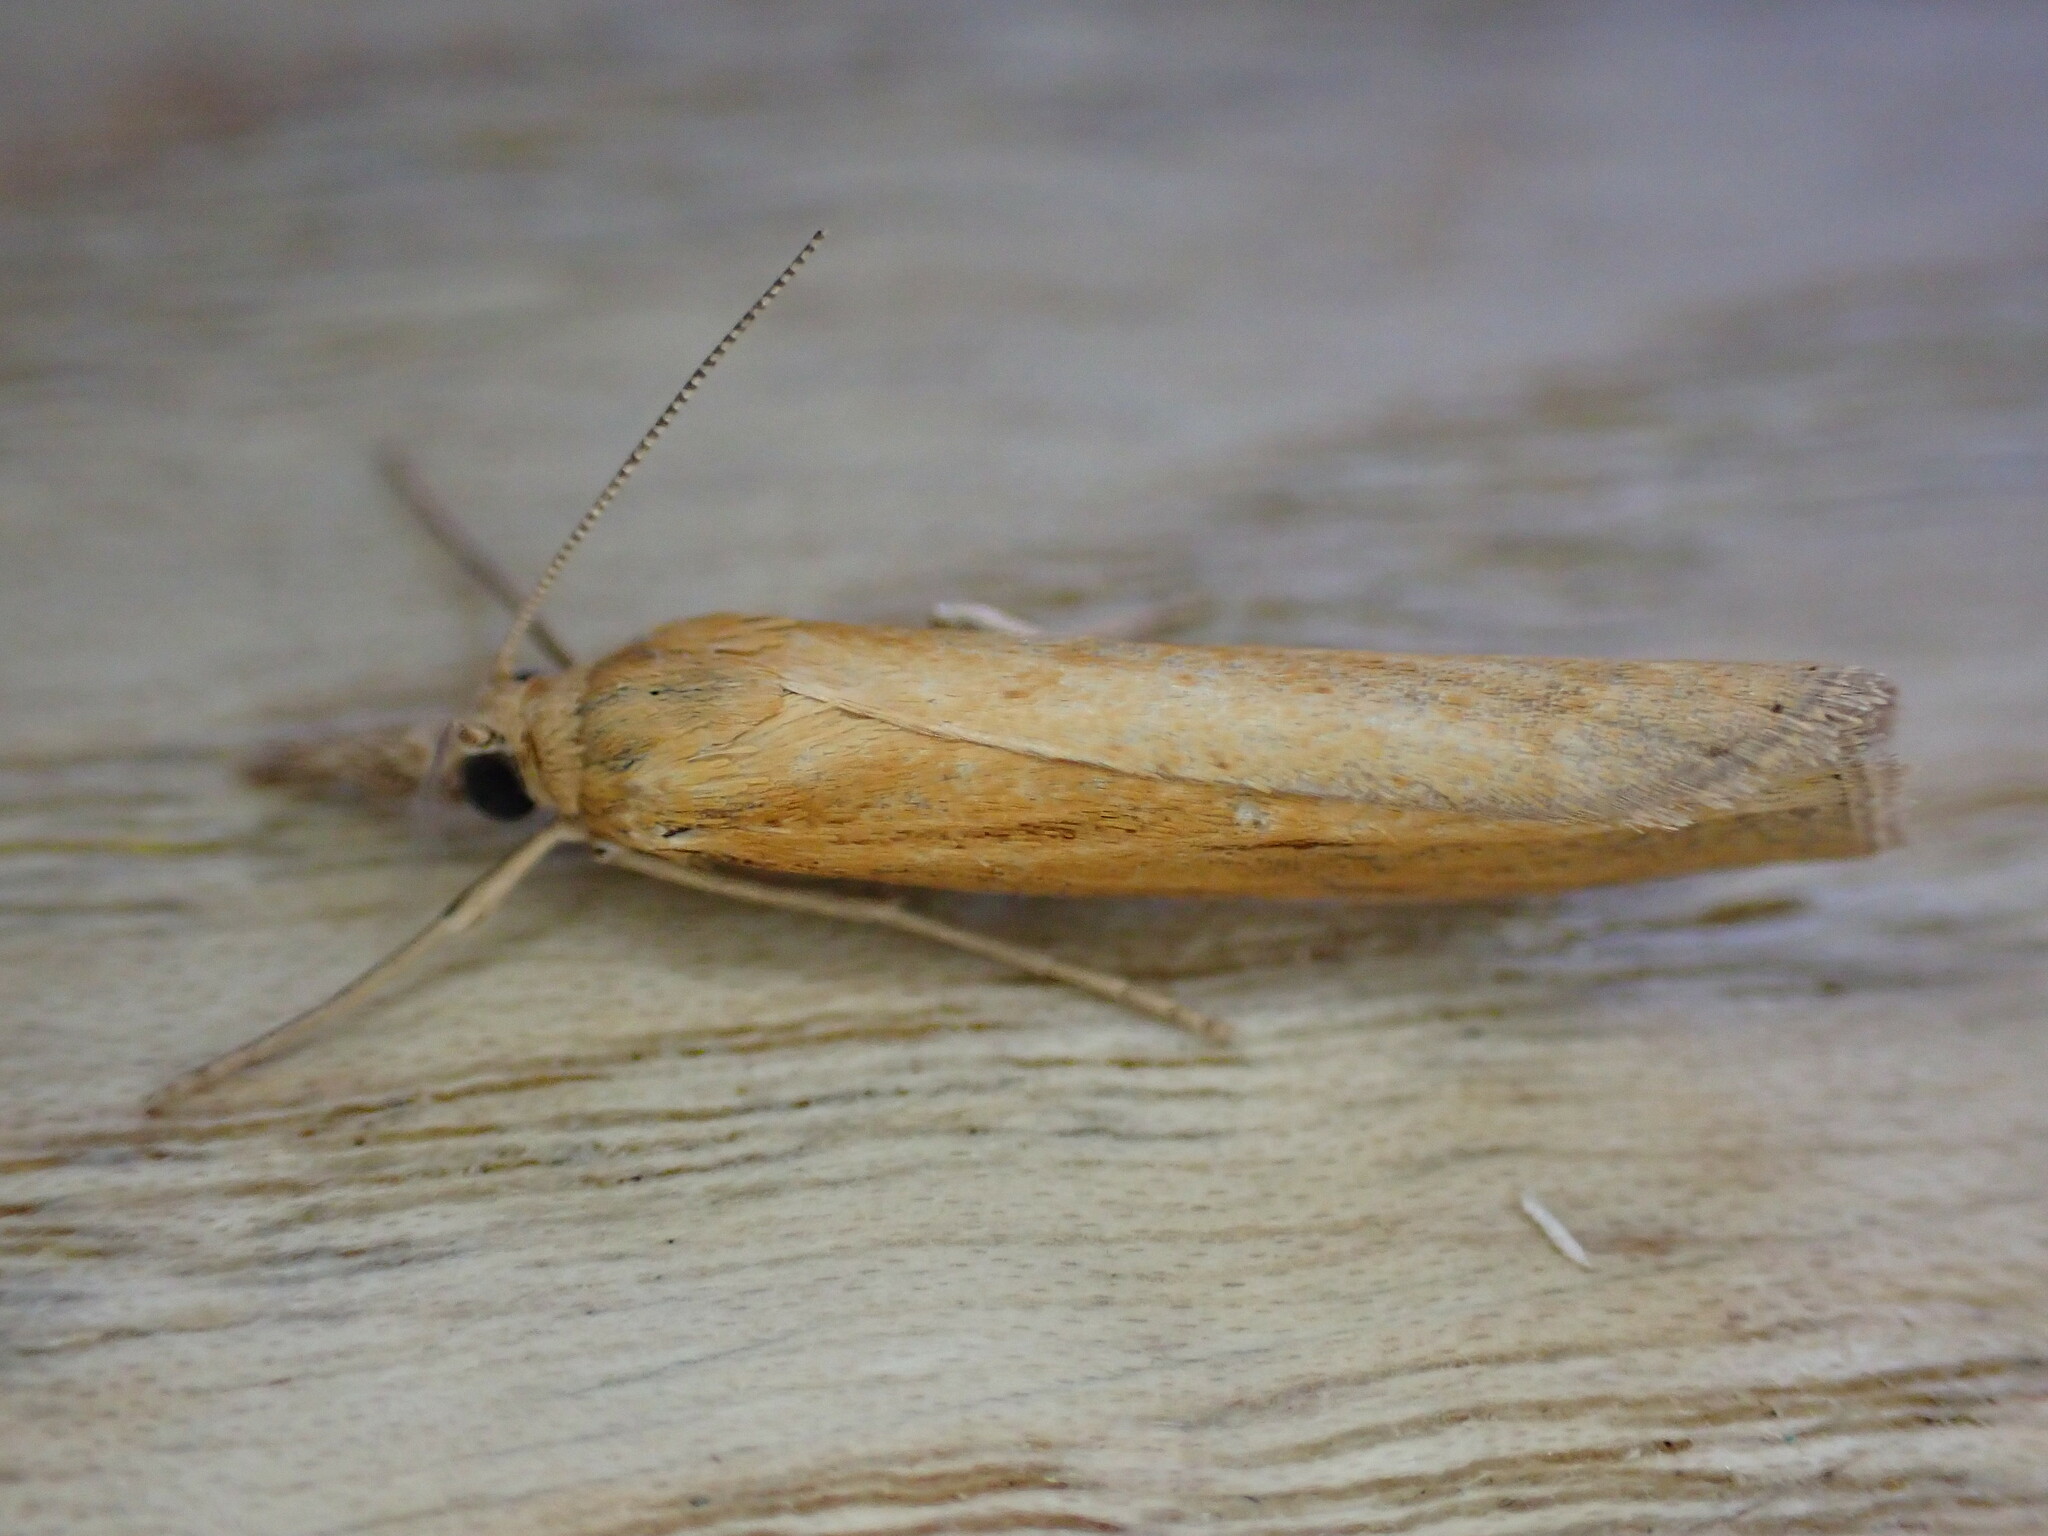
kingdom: Animalia
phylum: Arthropoda
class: Insecta
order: Lepidoptera
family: Crambidae
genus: Agriphila
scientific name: Agriphila tristellus
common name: Common grass-veneer
